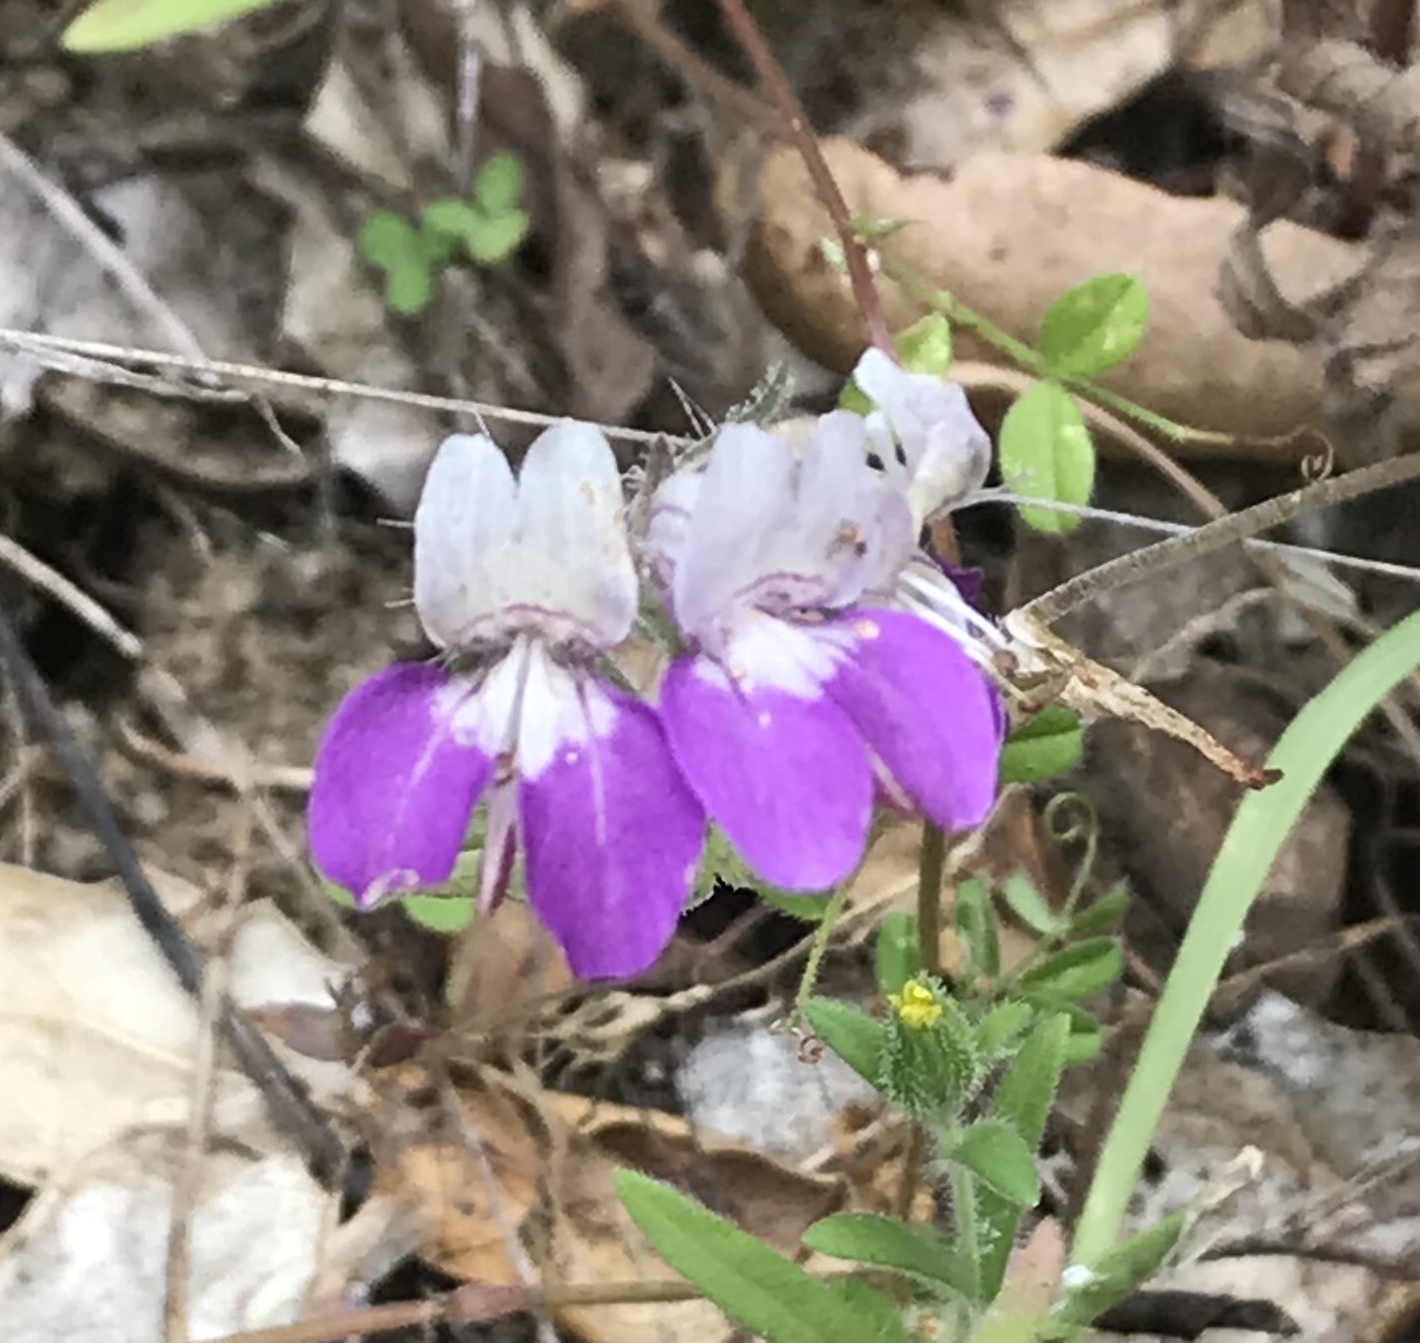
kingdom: Plantae
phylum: Tracheophyta
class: Magnoliopsida
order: Lamiales
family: Plantaginaceae
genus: Collinsia
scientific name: Collinsia heterophylla
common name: Chinese-houses
